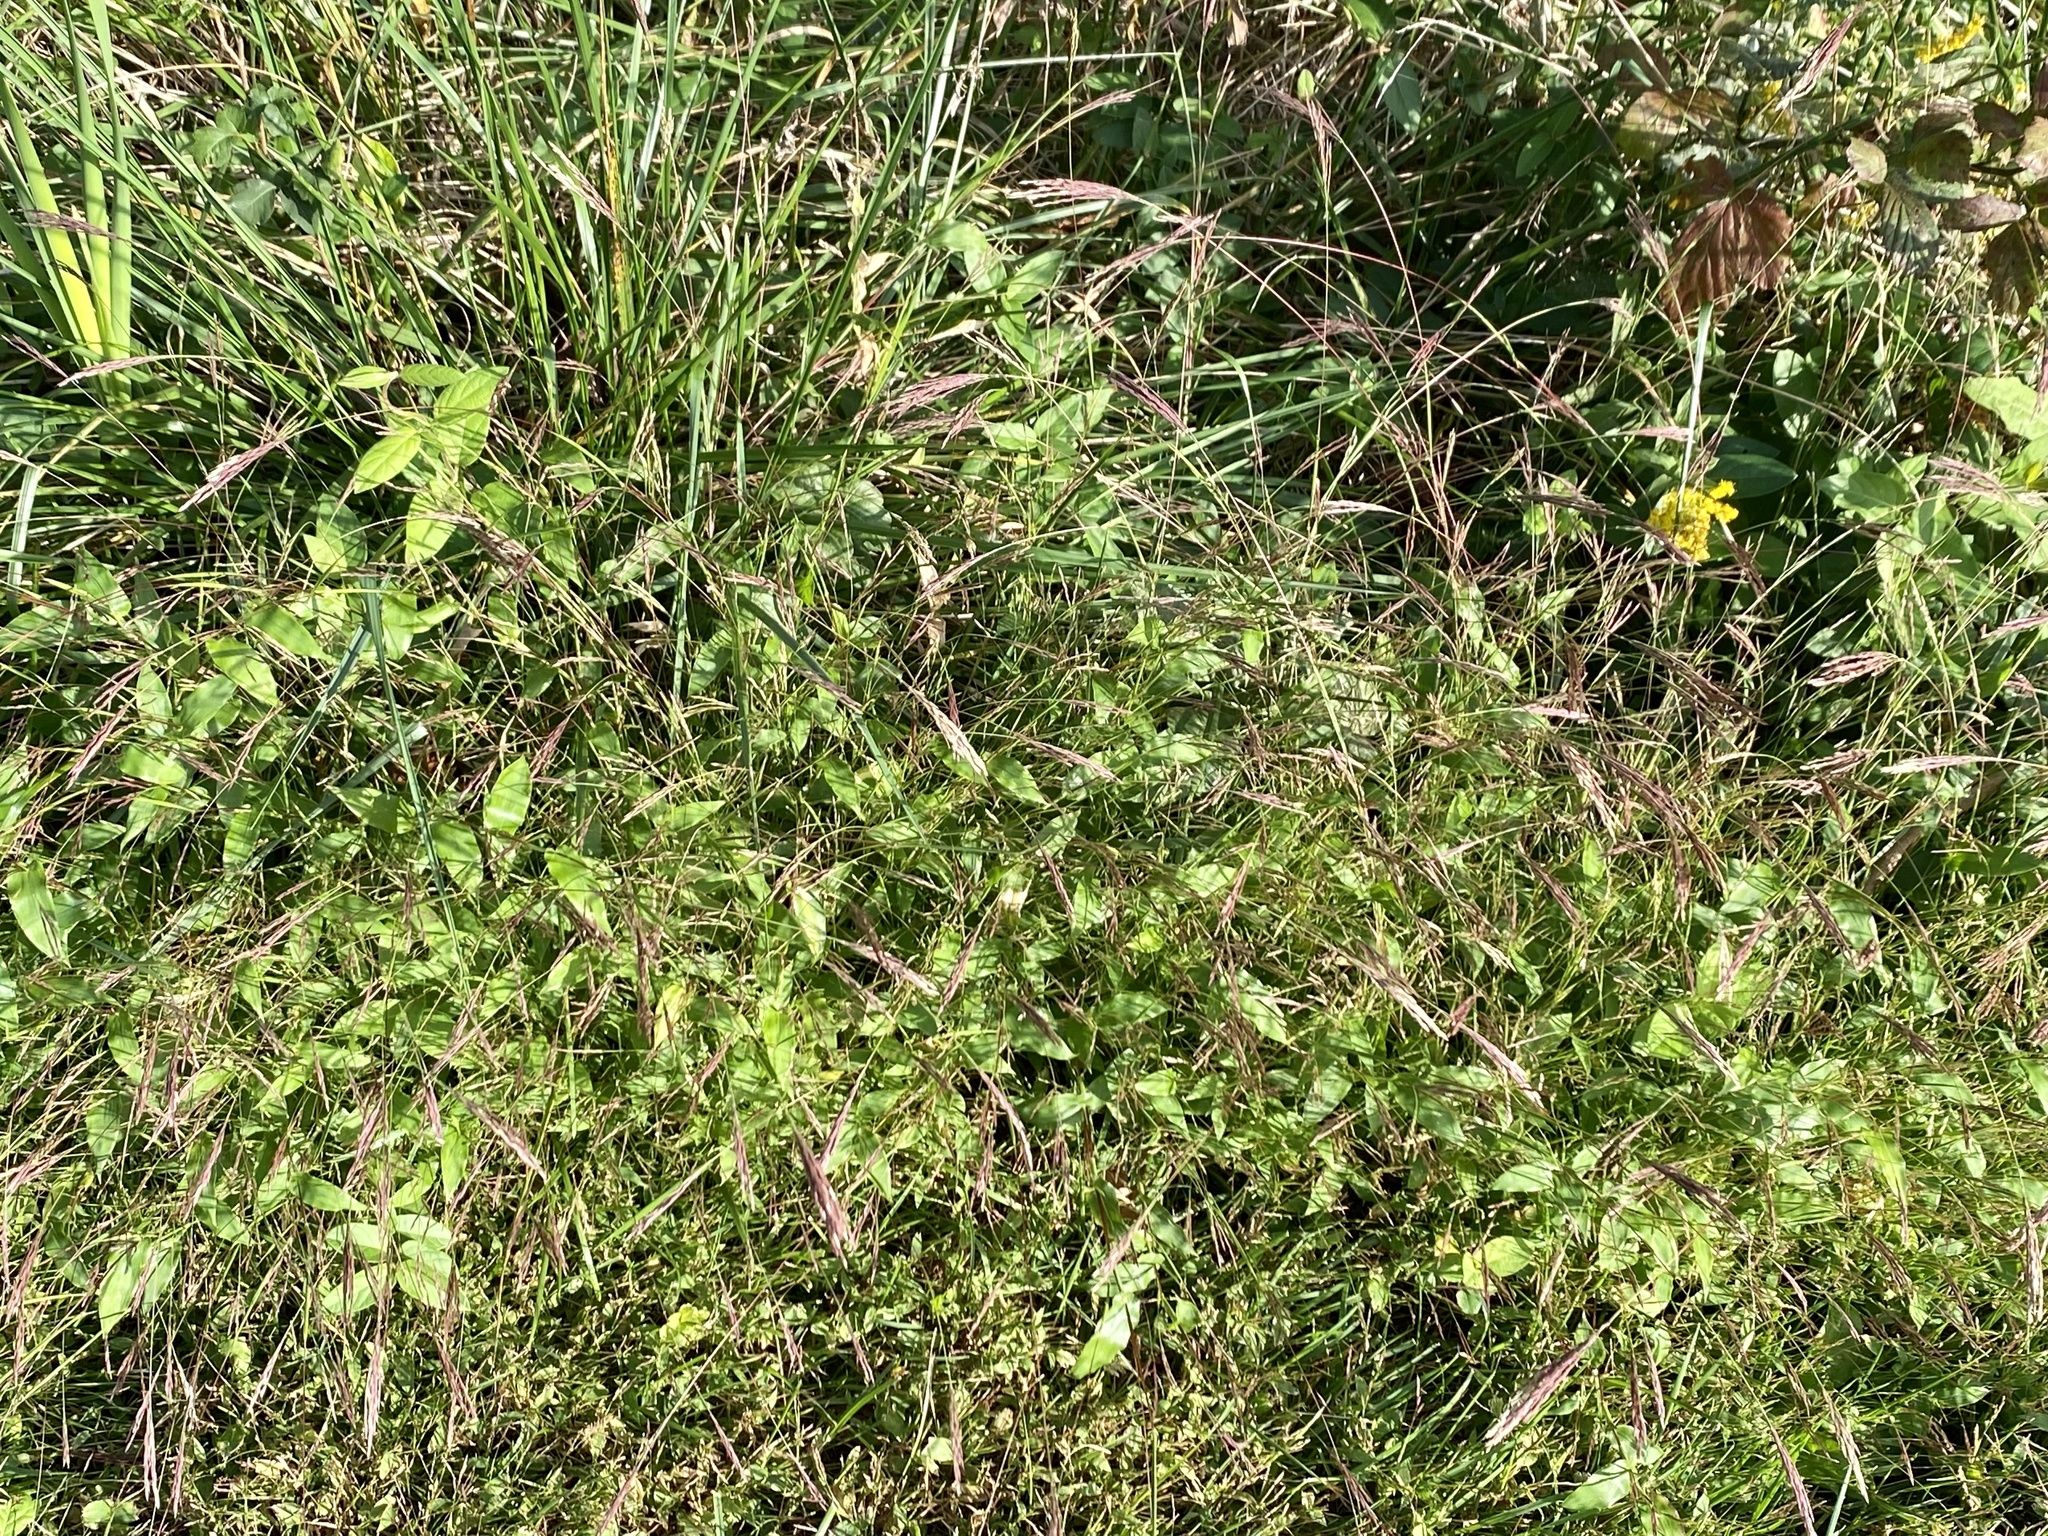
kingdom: Plantae
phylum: Tracheophyta
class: Liliopsida
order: Poales
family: Poaceae
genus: Arthraxon
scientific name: Arthraxon hispidus
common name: Small carpgrass
